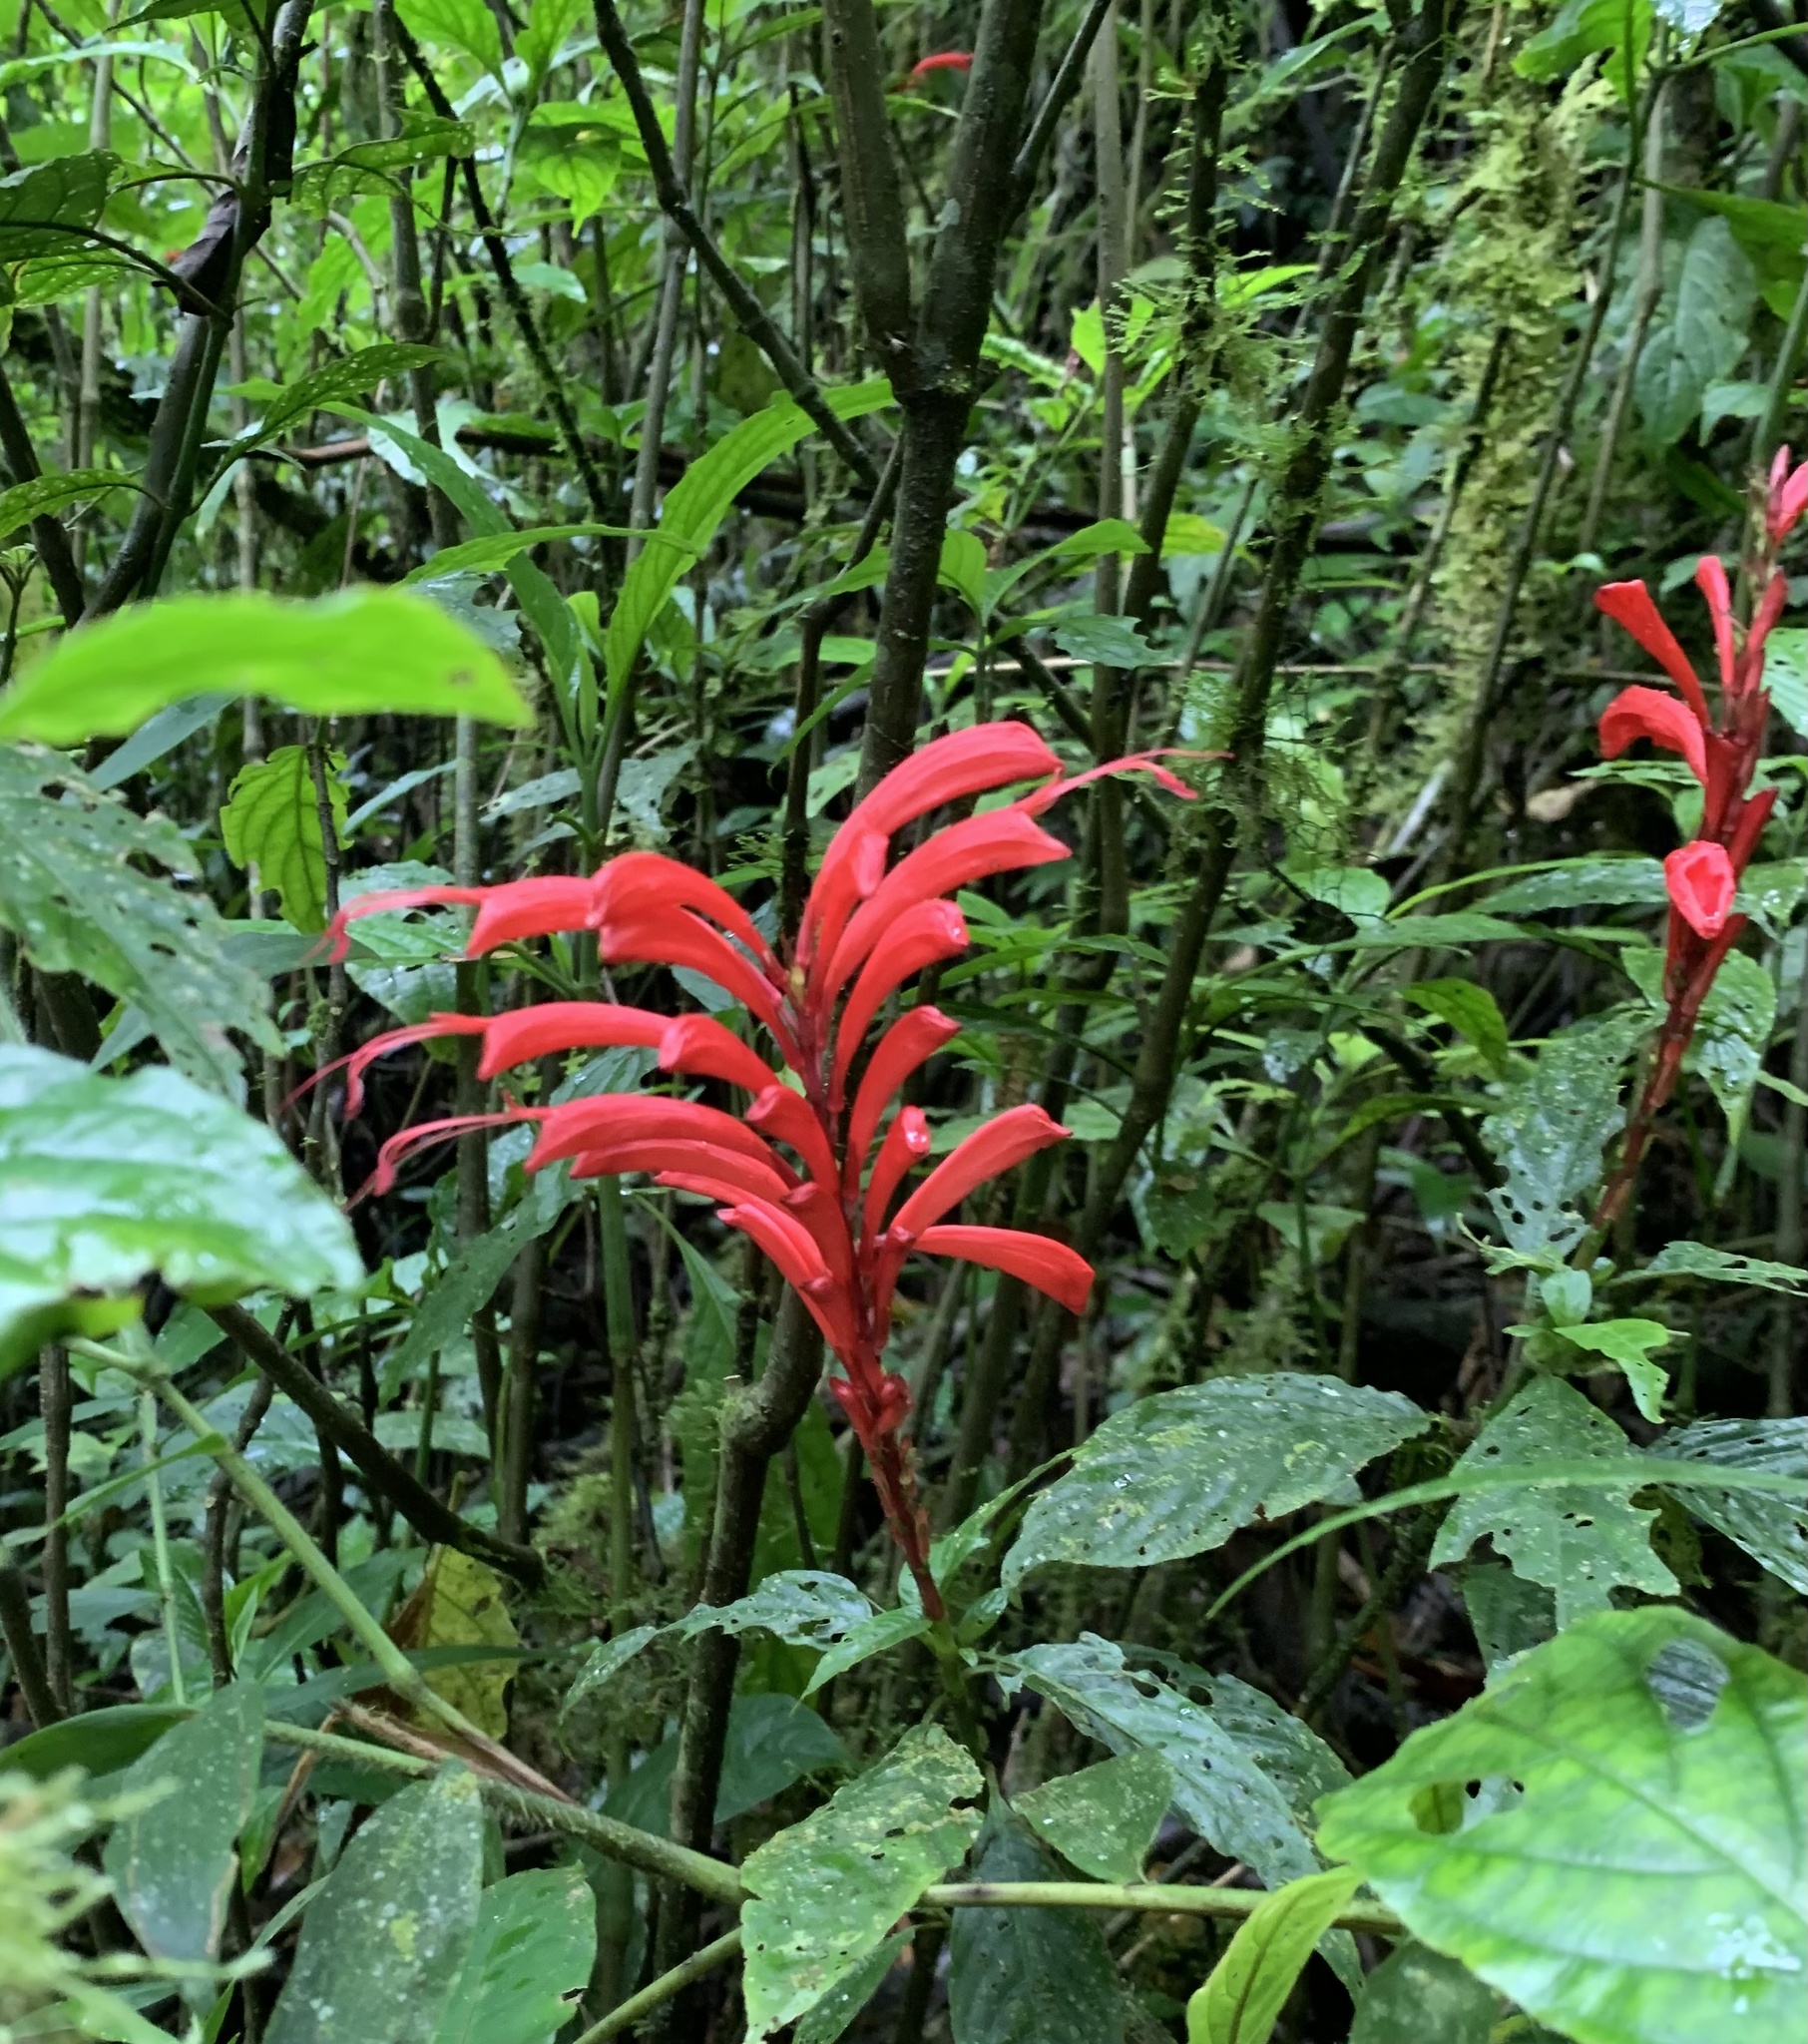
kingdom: Plantae
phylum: Tracheophyta
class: Magnoliopsida
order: Lamiales
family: Acanthaceae
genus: Stenostephanus
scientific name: Stenostephanus leiorhachis
